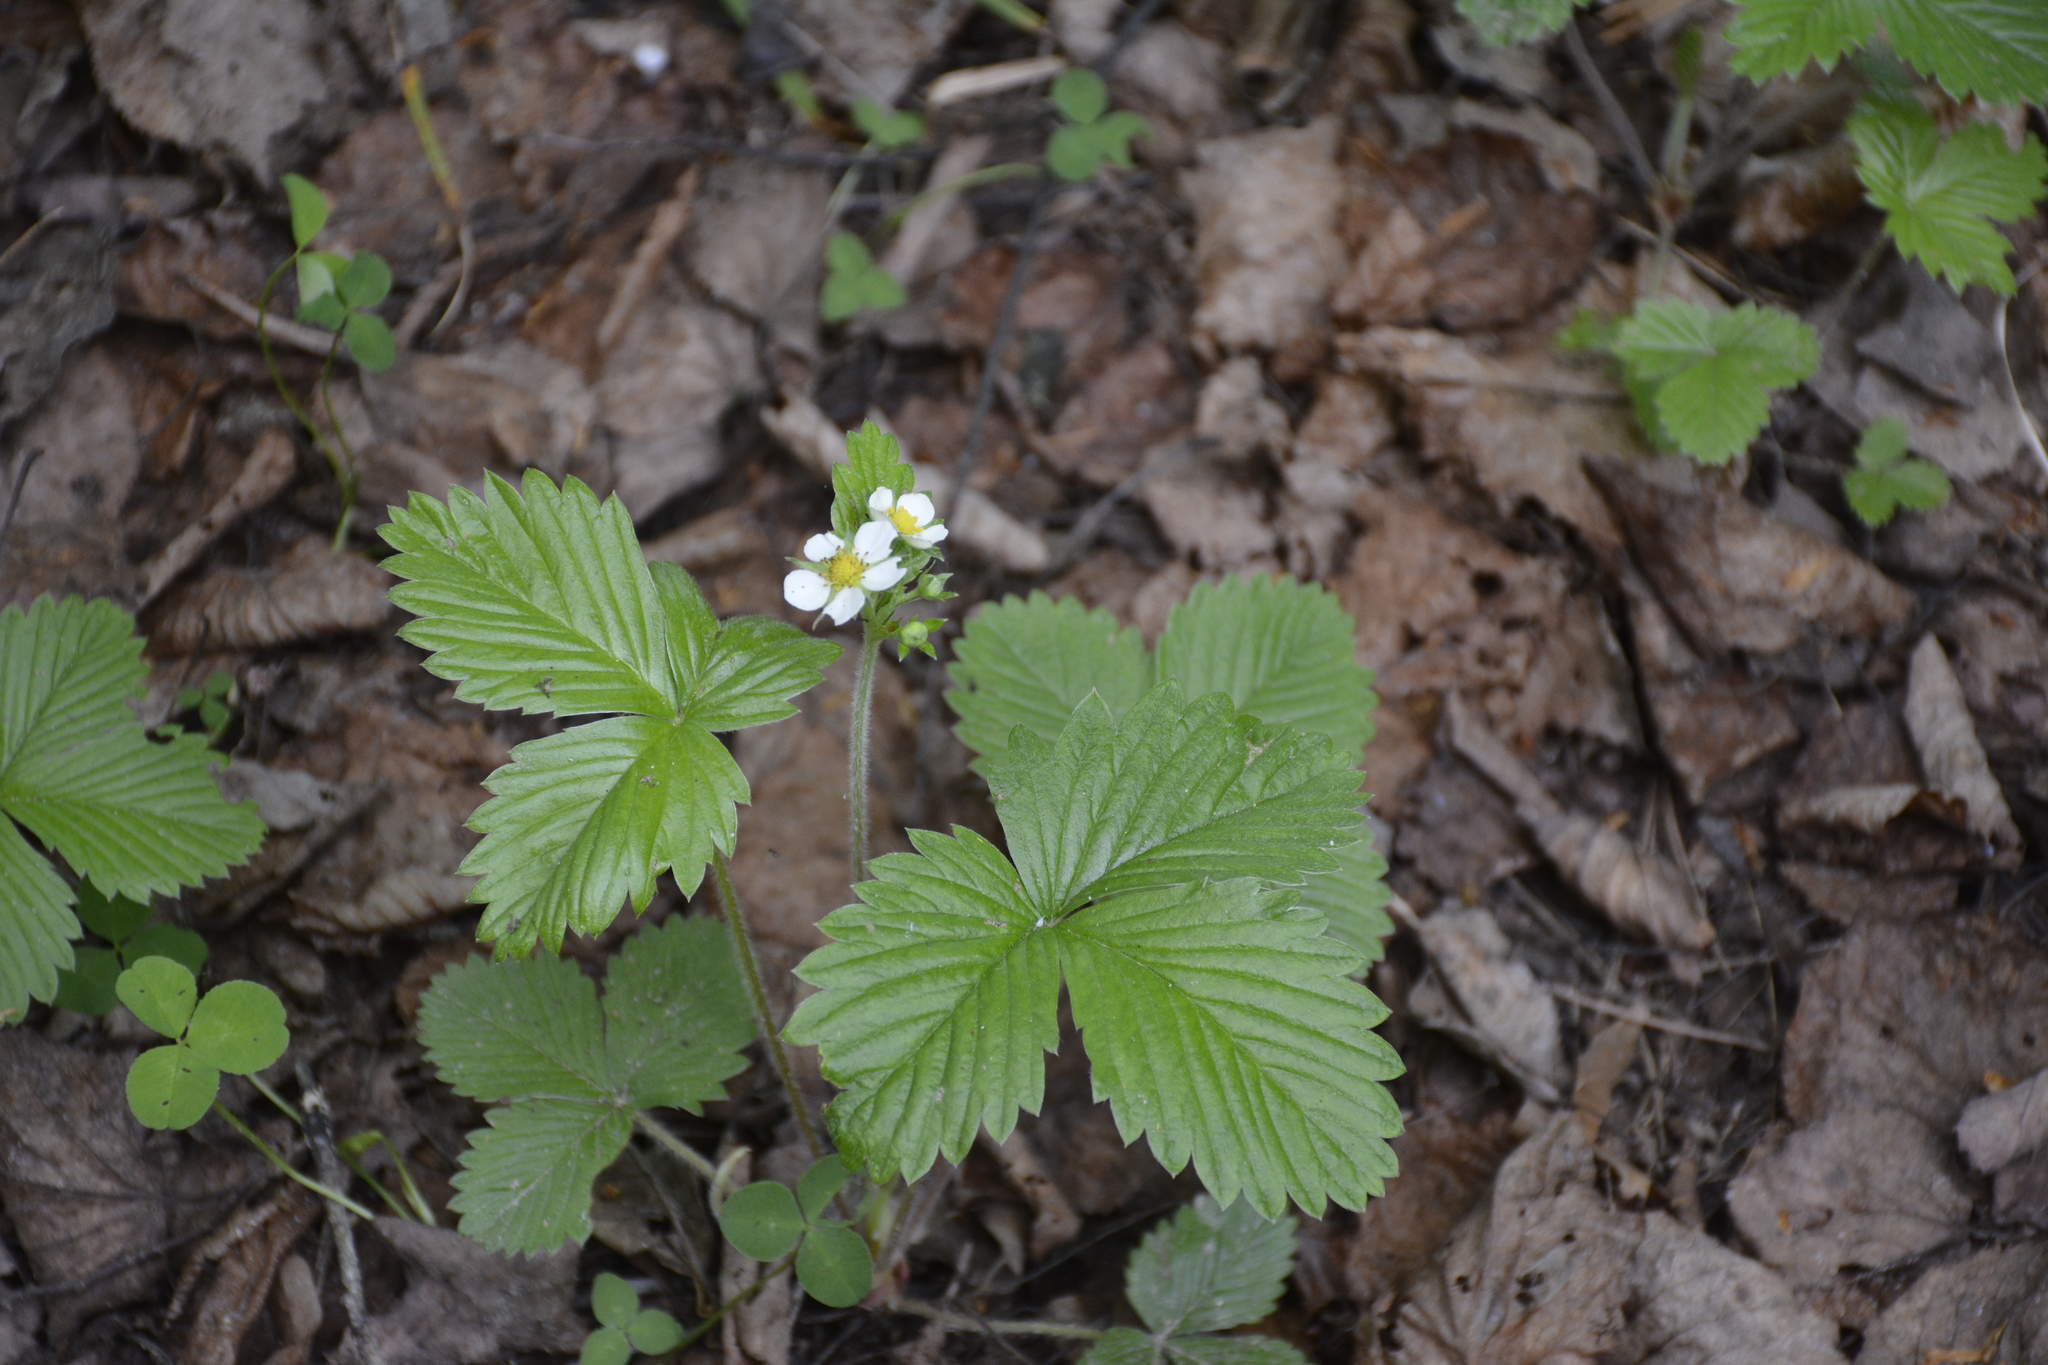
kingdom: Plantae
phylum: Tracheophyta
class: Magnoliopsida
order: Rosales
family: Rosaceae
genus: Fragaria
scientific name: Fragaria vesca
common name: Wild strawberry
